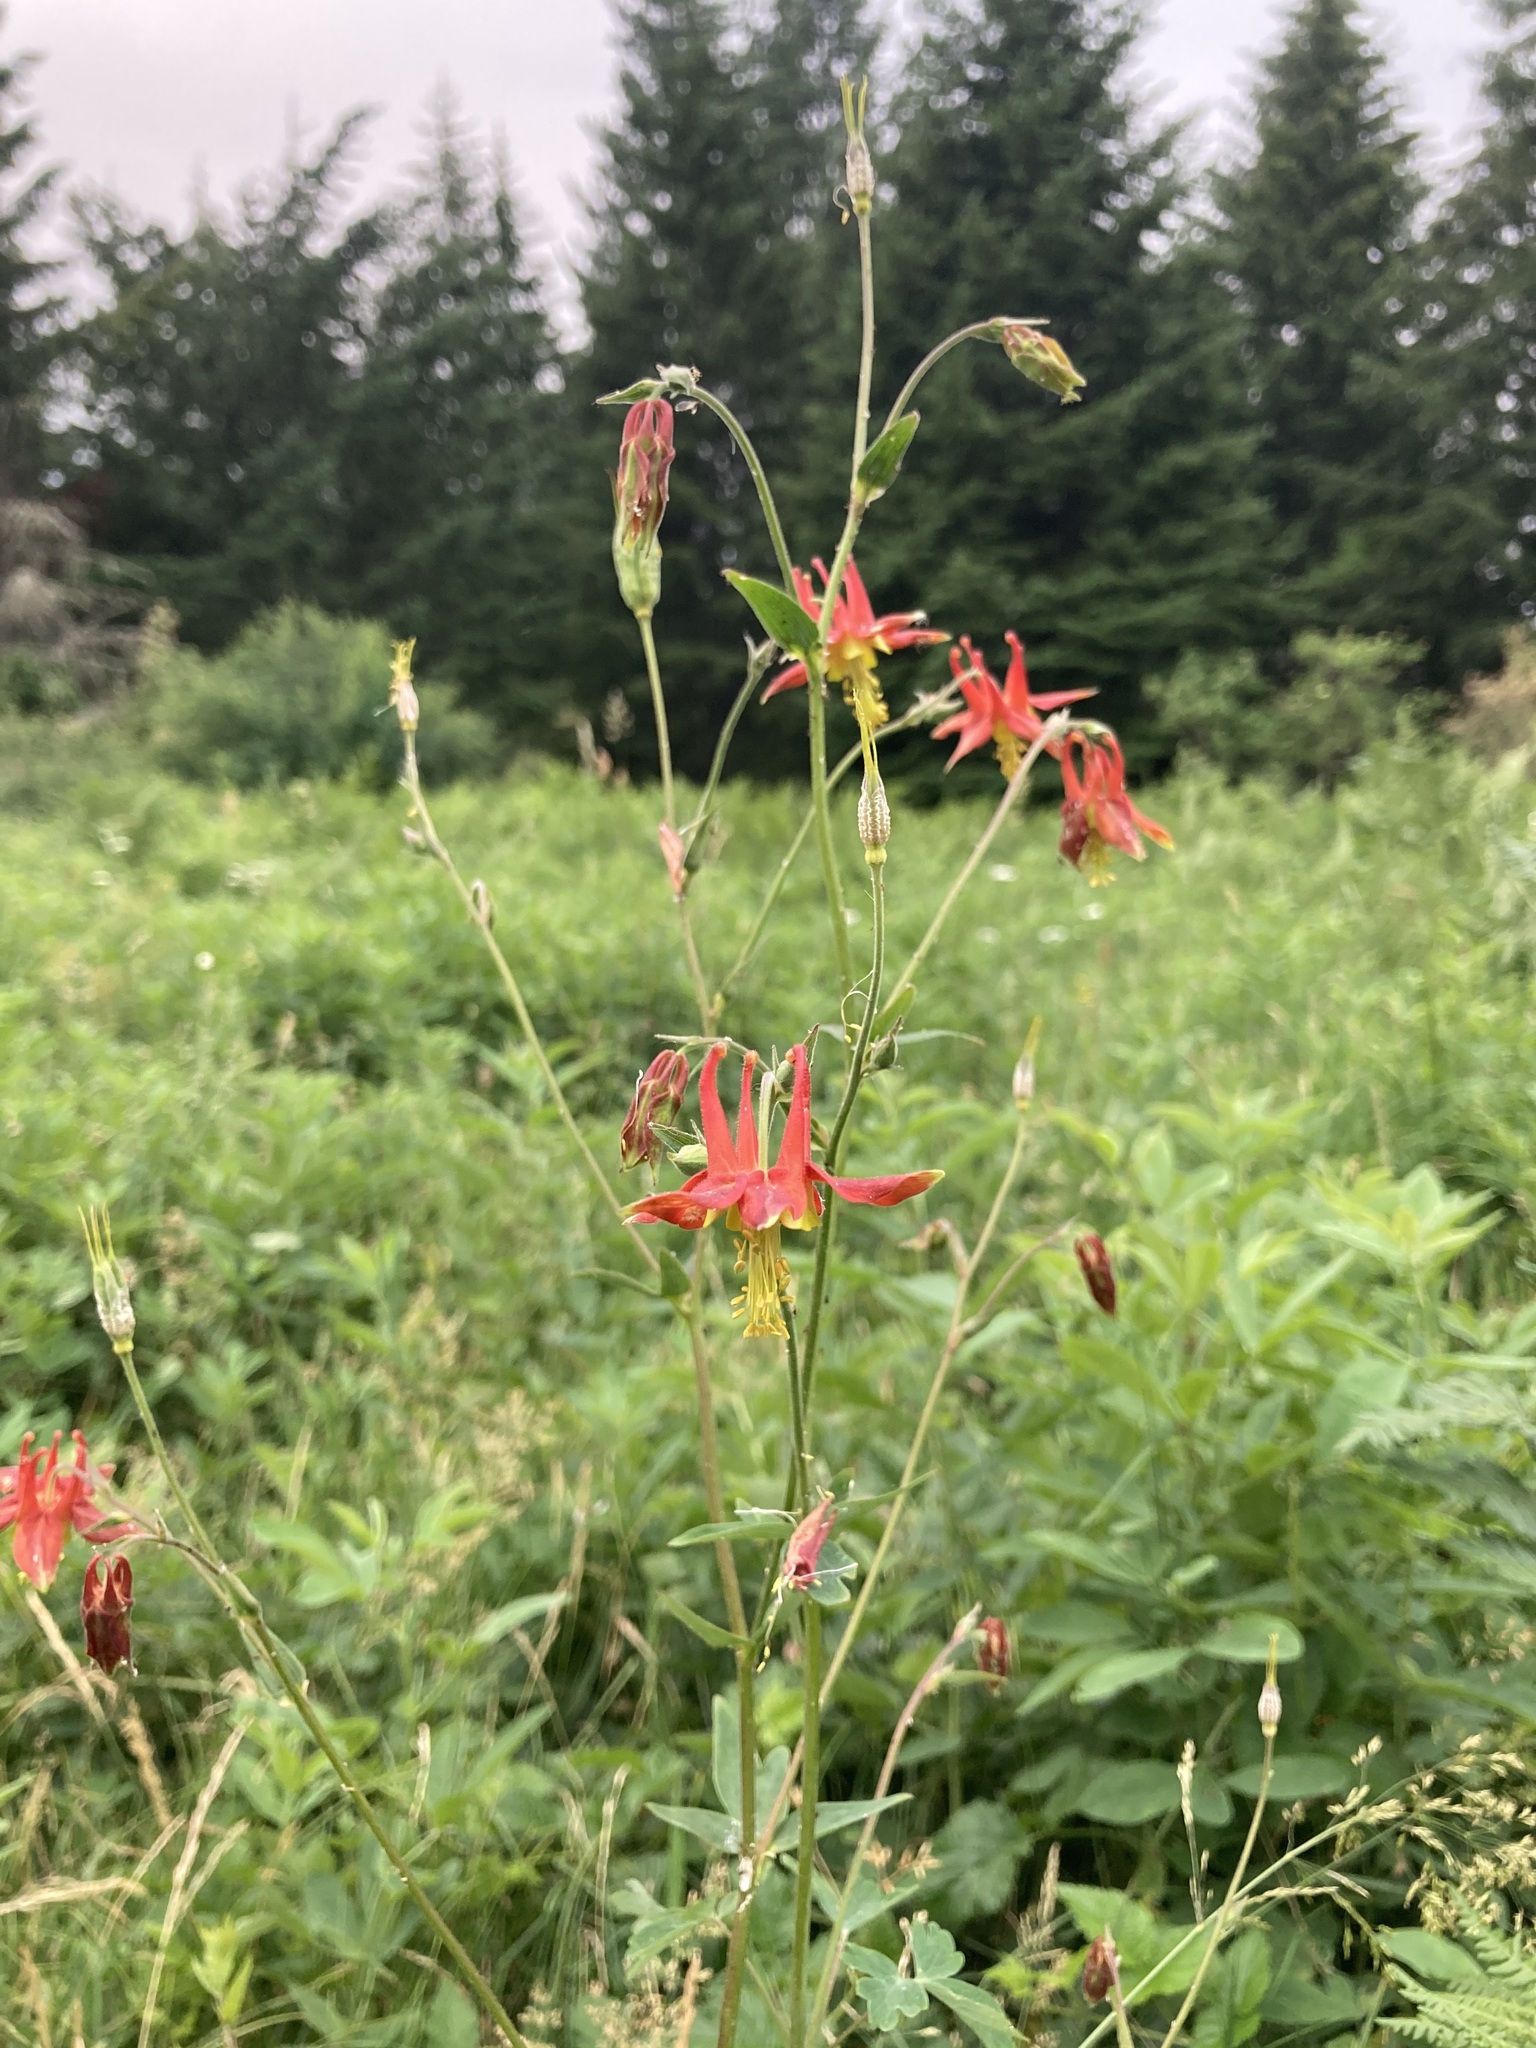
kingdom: Plantae
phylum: Tracheophyta
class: Magnoliopsida
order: Ranunculales
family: Ranunculaceae
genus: Aquilegia
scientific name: Aquilegia formosa
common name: Sitka columbine
